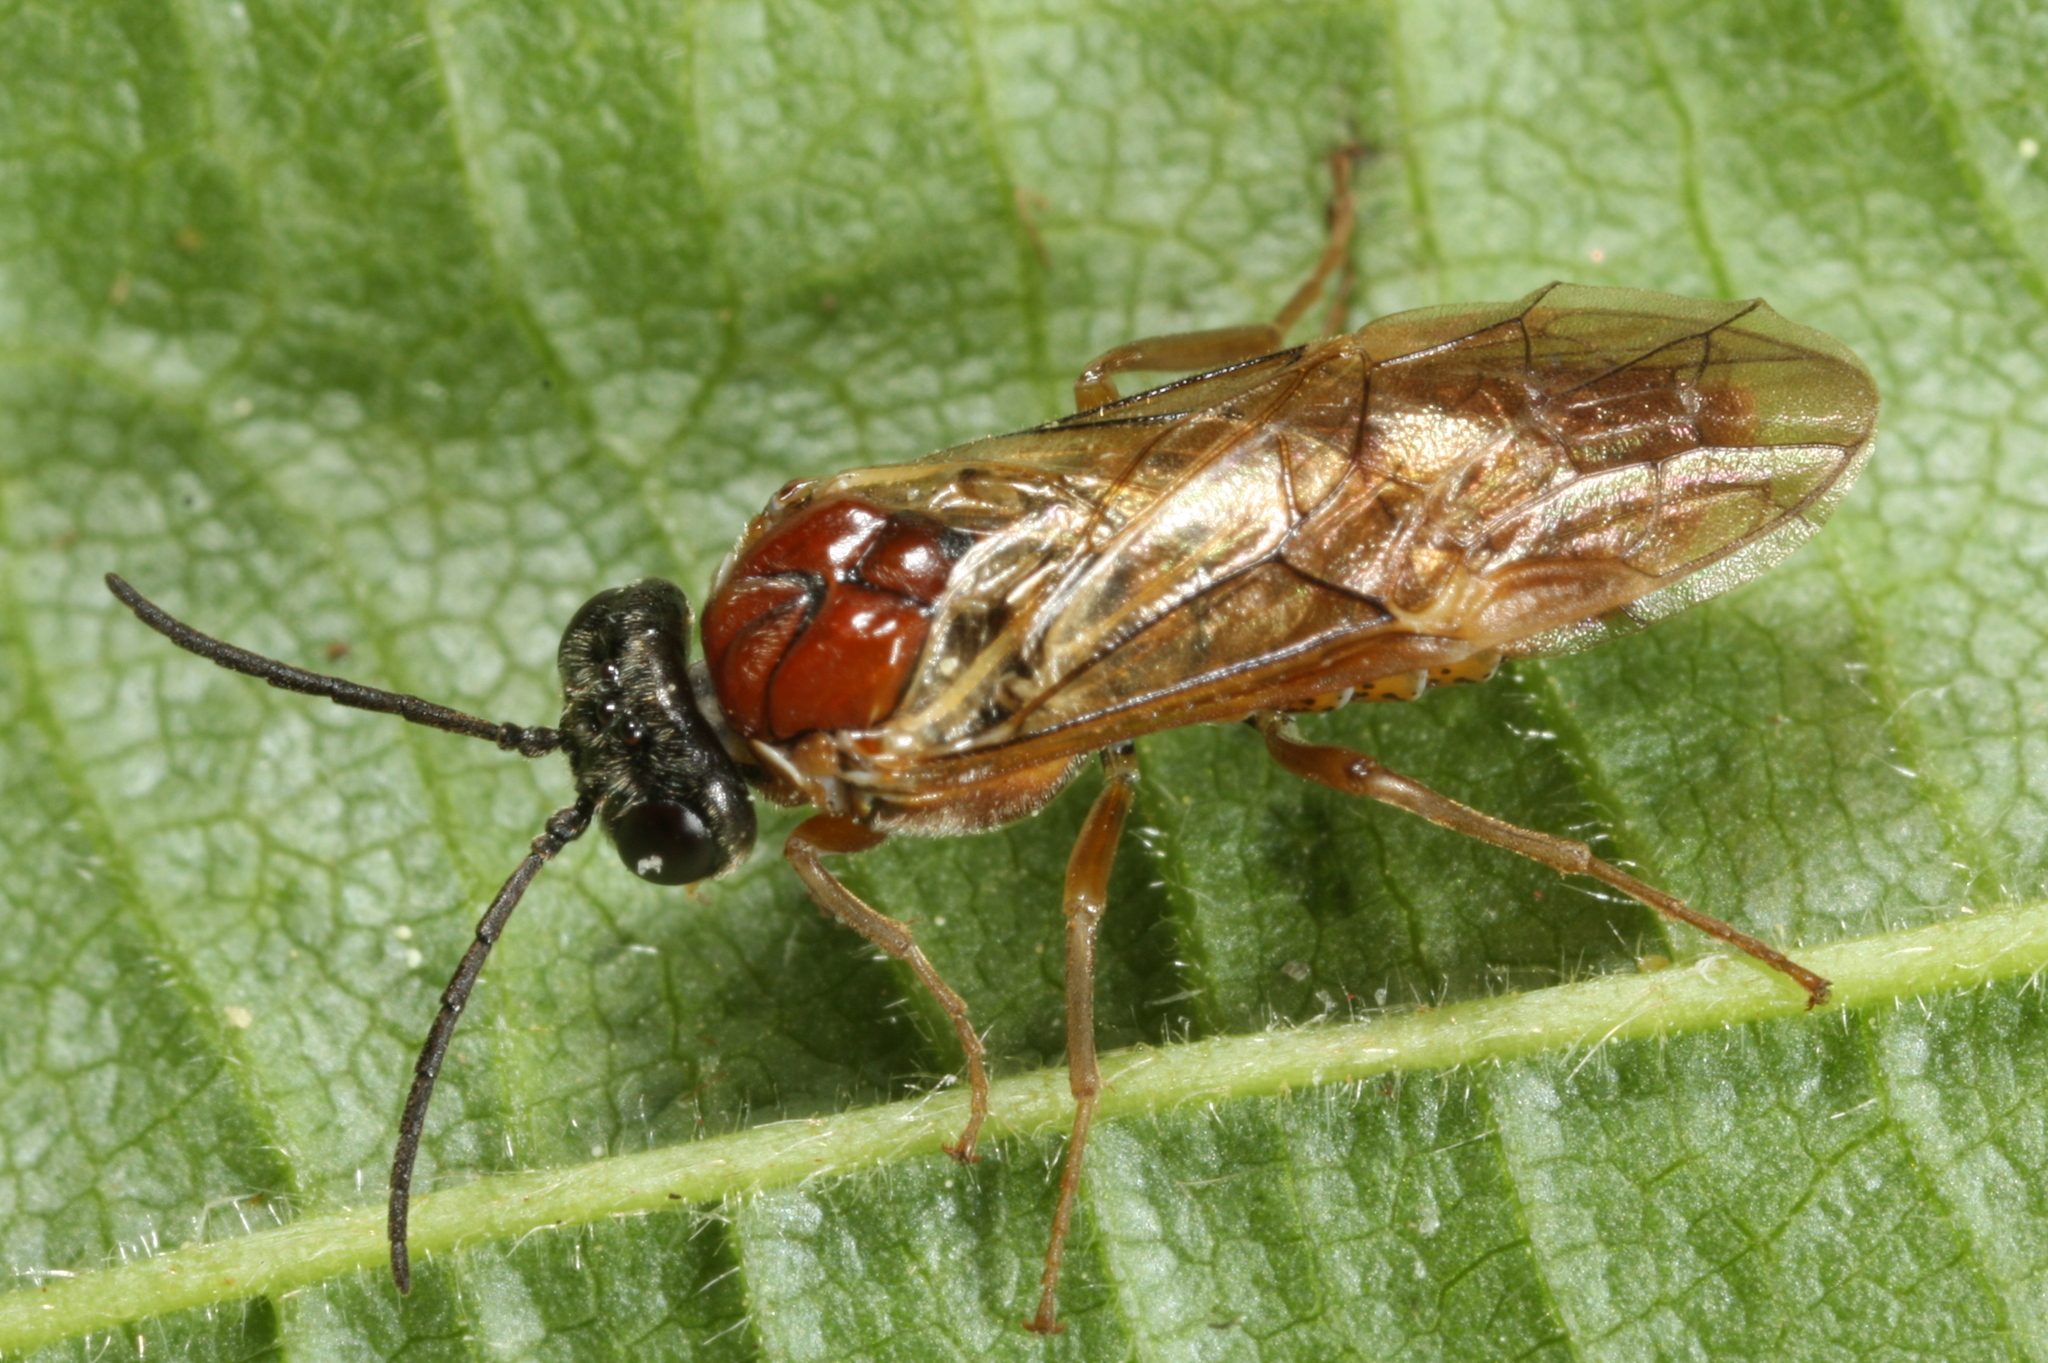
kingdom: Animalia
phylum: Arthropoda
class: Insecta
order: Hymenoptera
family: Tenthredinidae
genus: Periclista
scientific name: Periclista albida
